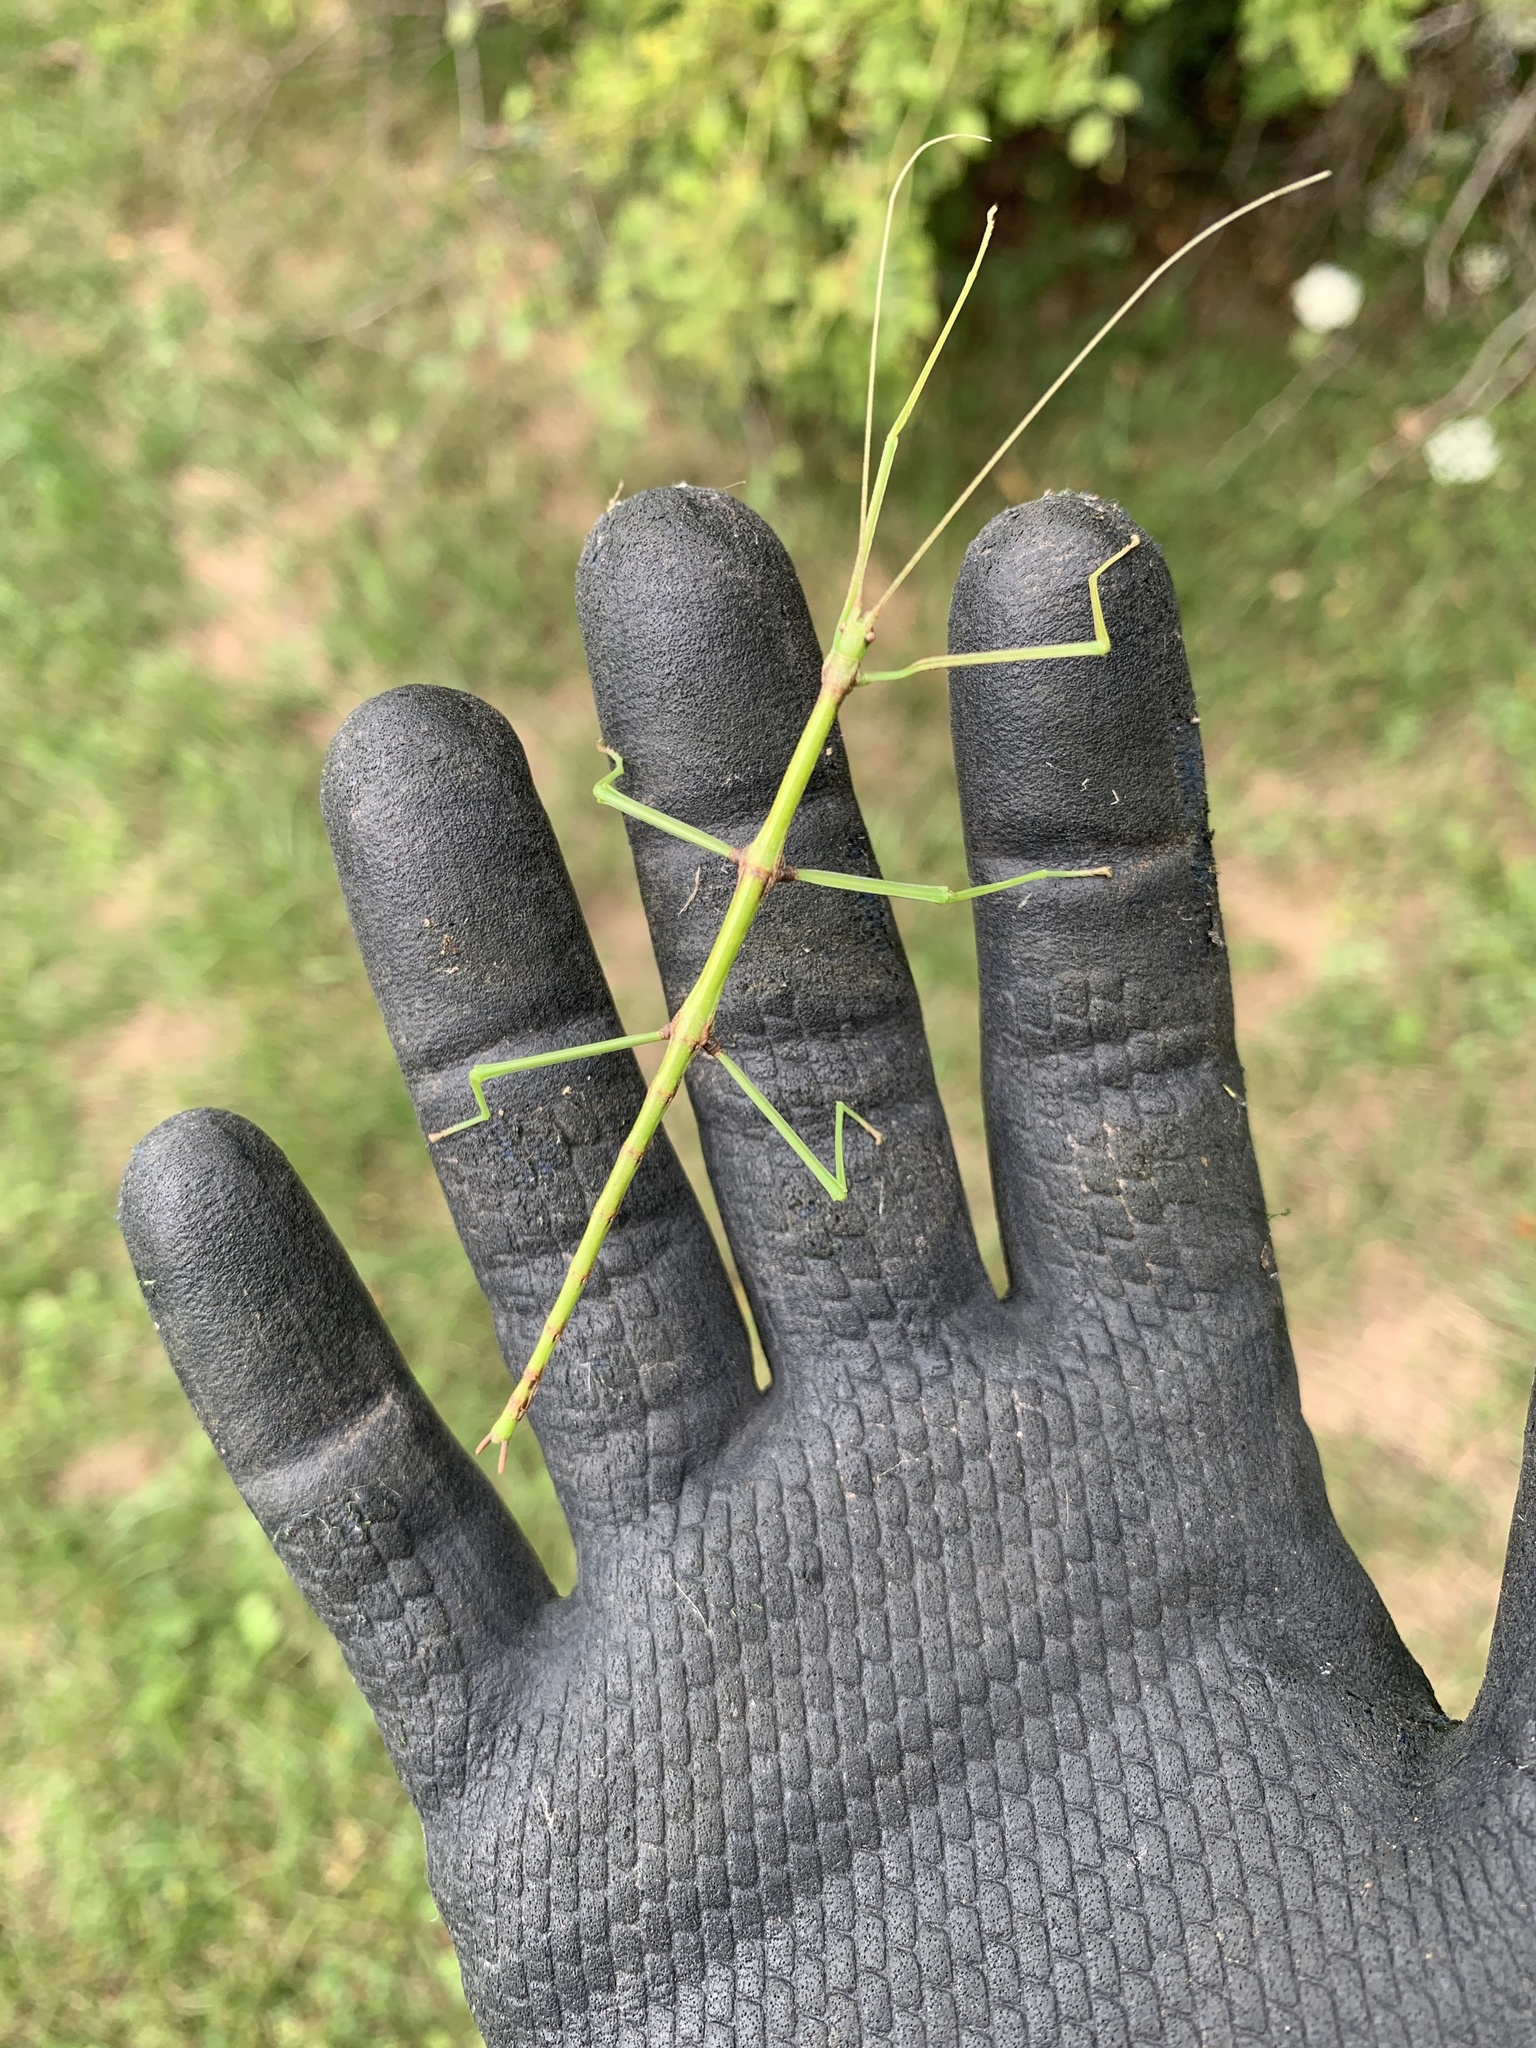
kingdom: Animalia
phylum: Arthropoda
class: Insecta
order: Phasmida
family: Diapheromeridae
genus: Diapheromera
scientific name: Diapheromera femorata
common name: Common american walkingstick
